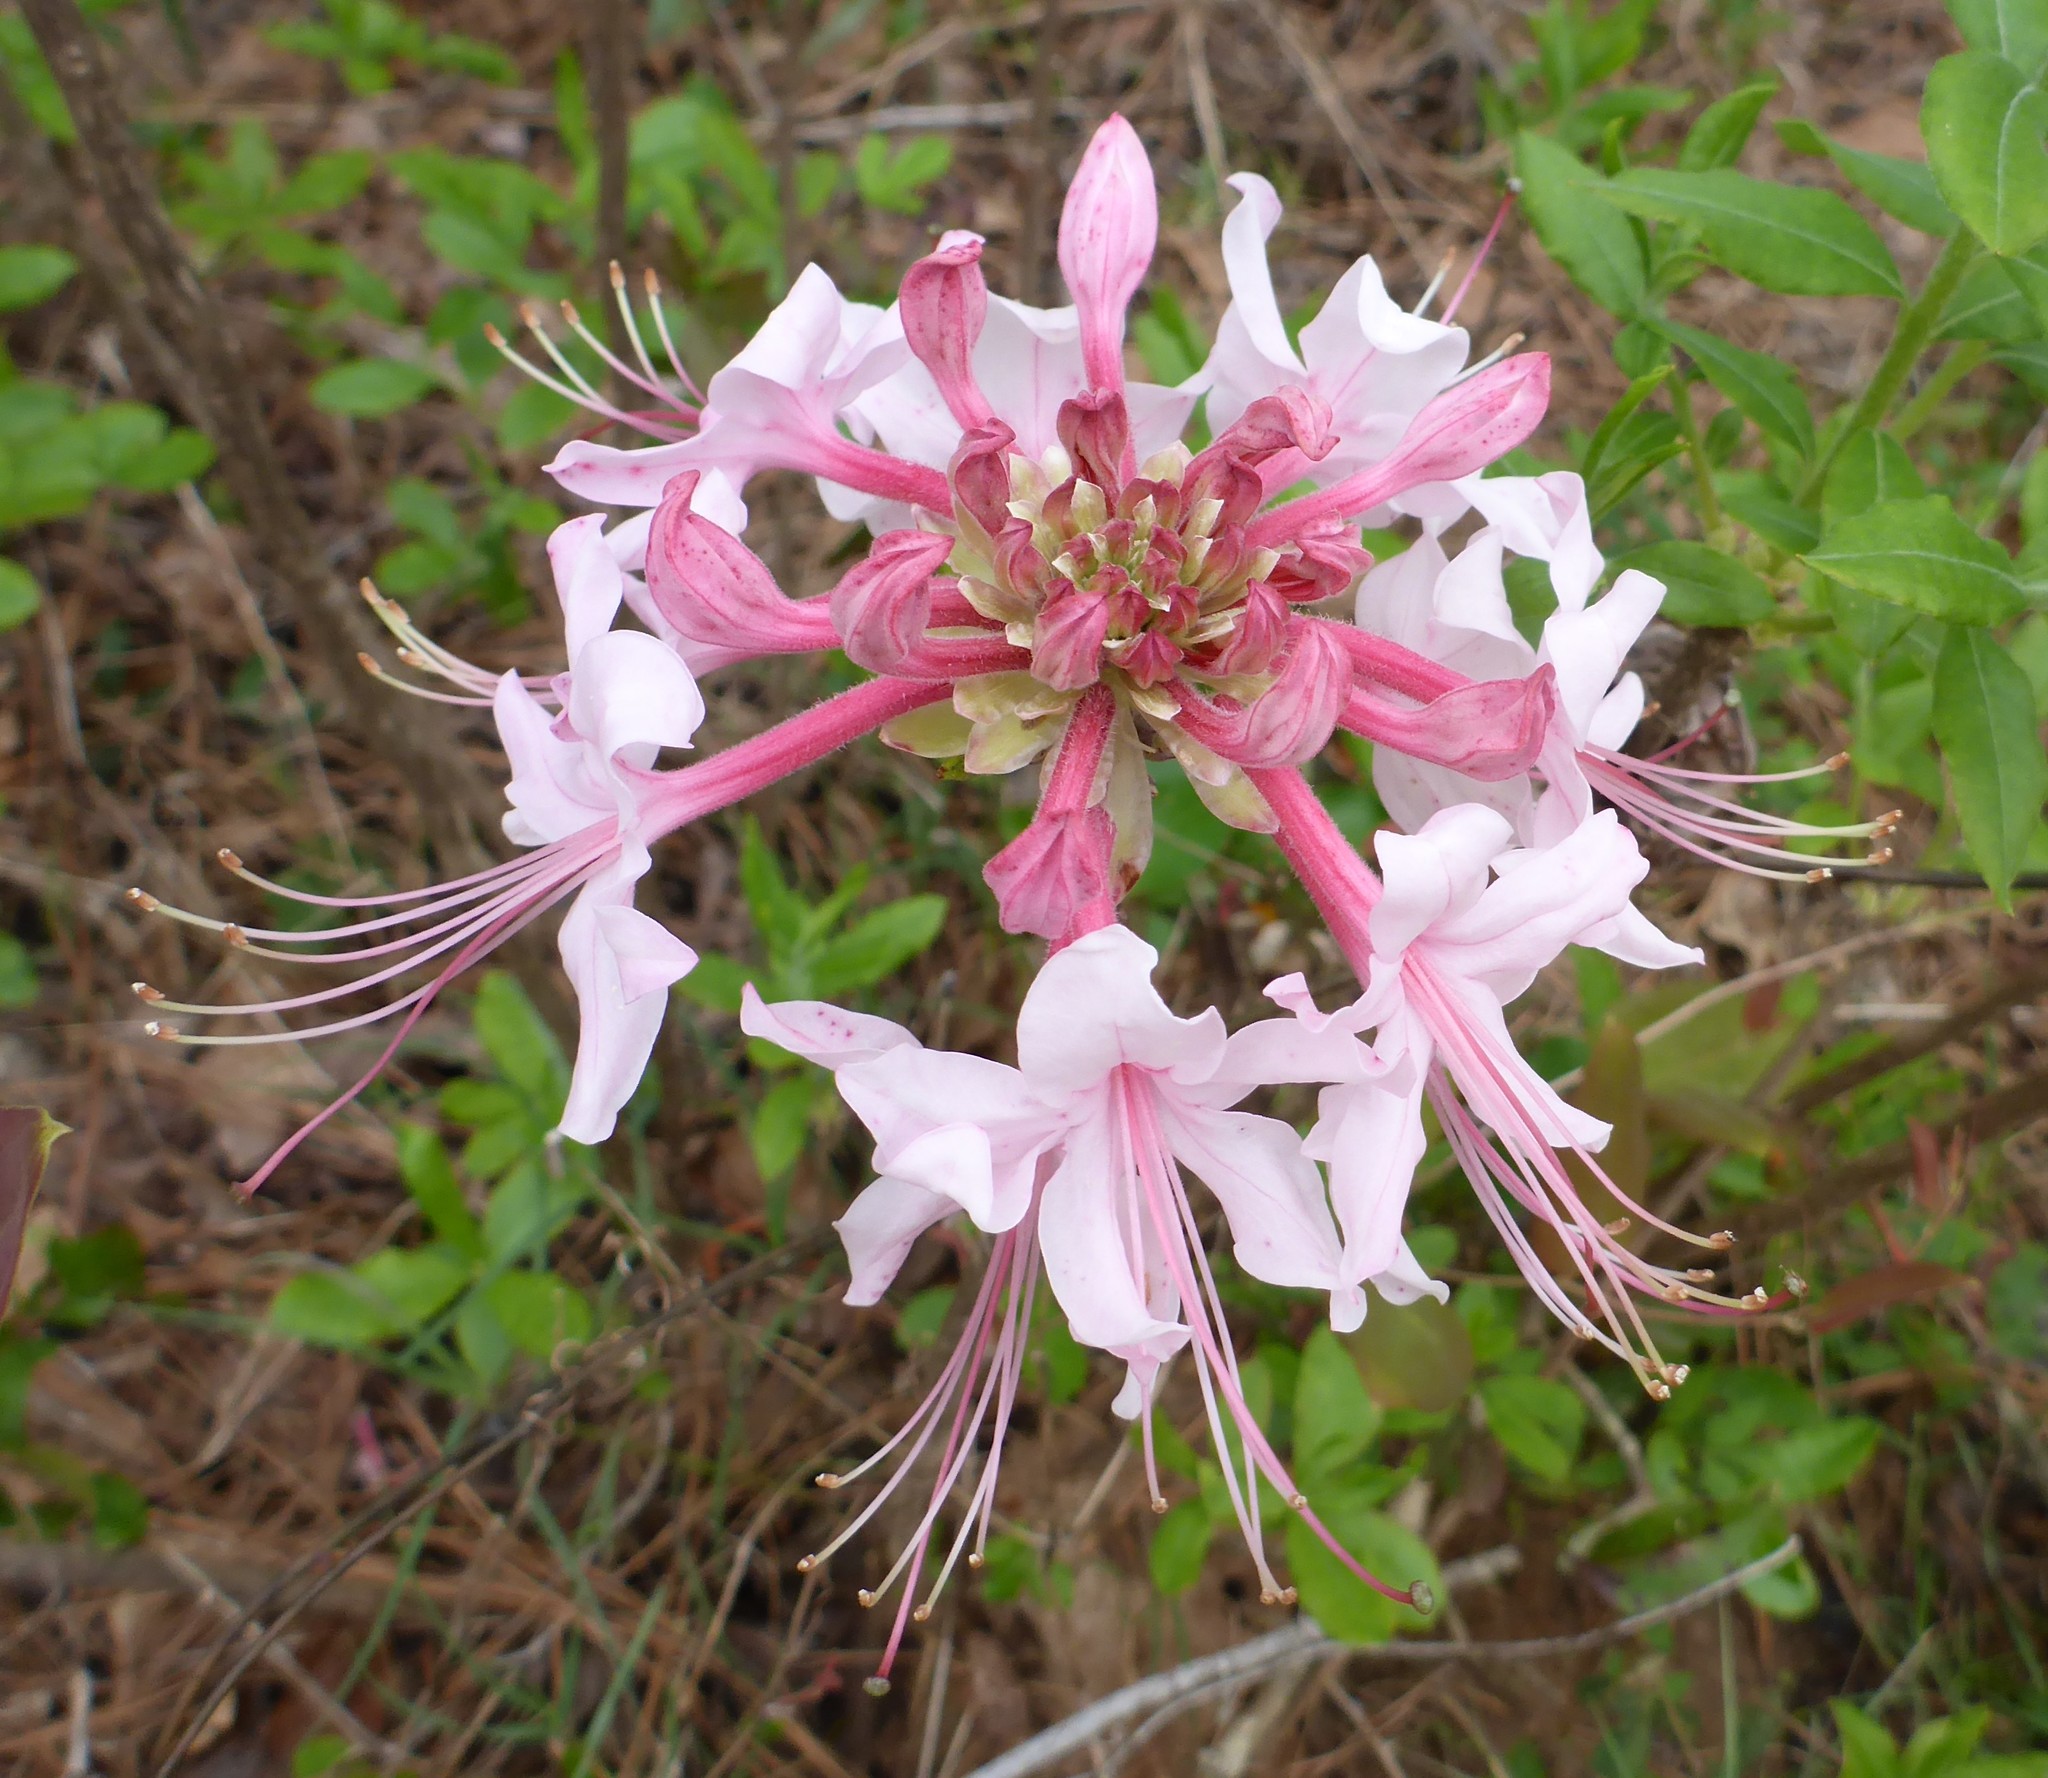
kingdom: Plantae
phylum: Tracheophyta
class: Magnoliopsida
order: Ericales
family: Ericaceae
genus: Rhododendron
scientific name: Rhododendron canescens
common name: Mountain azalea
